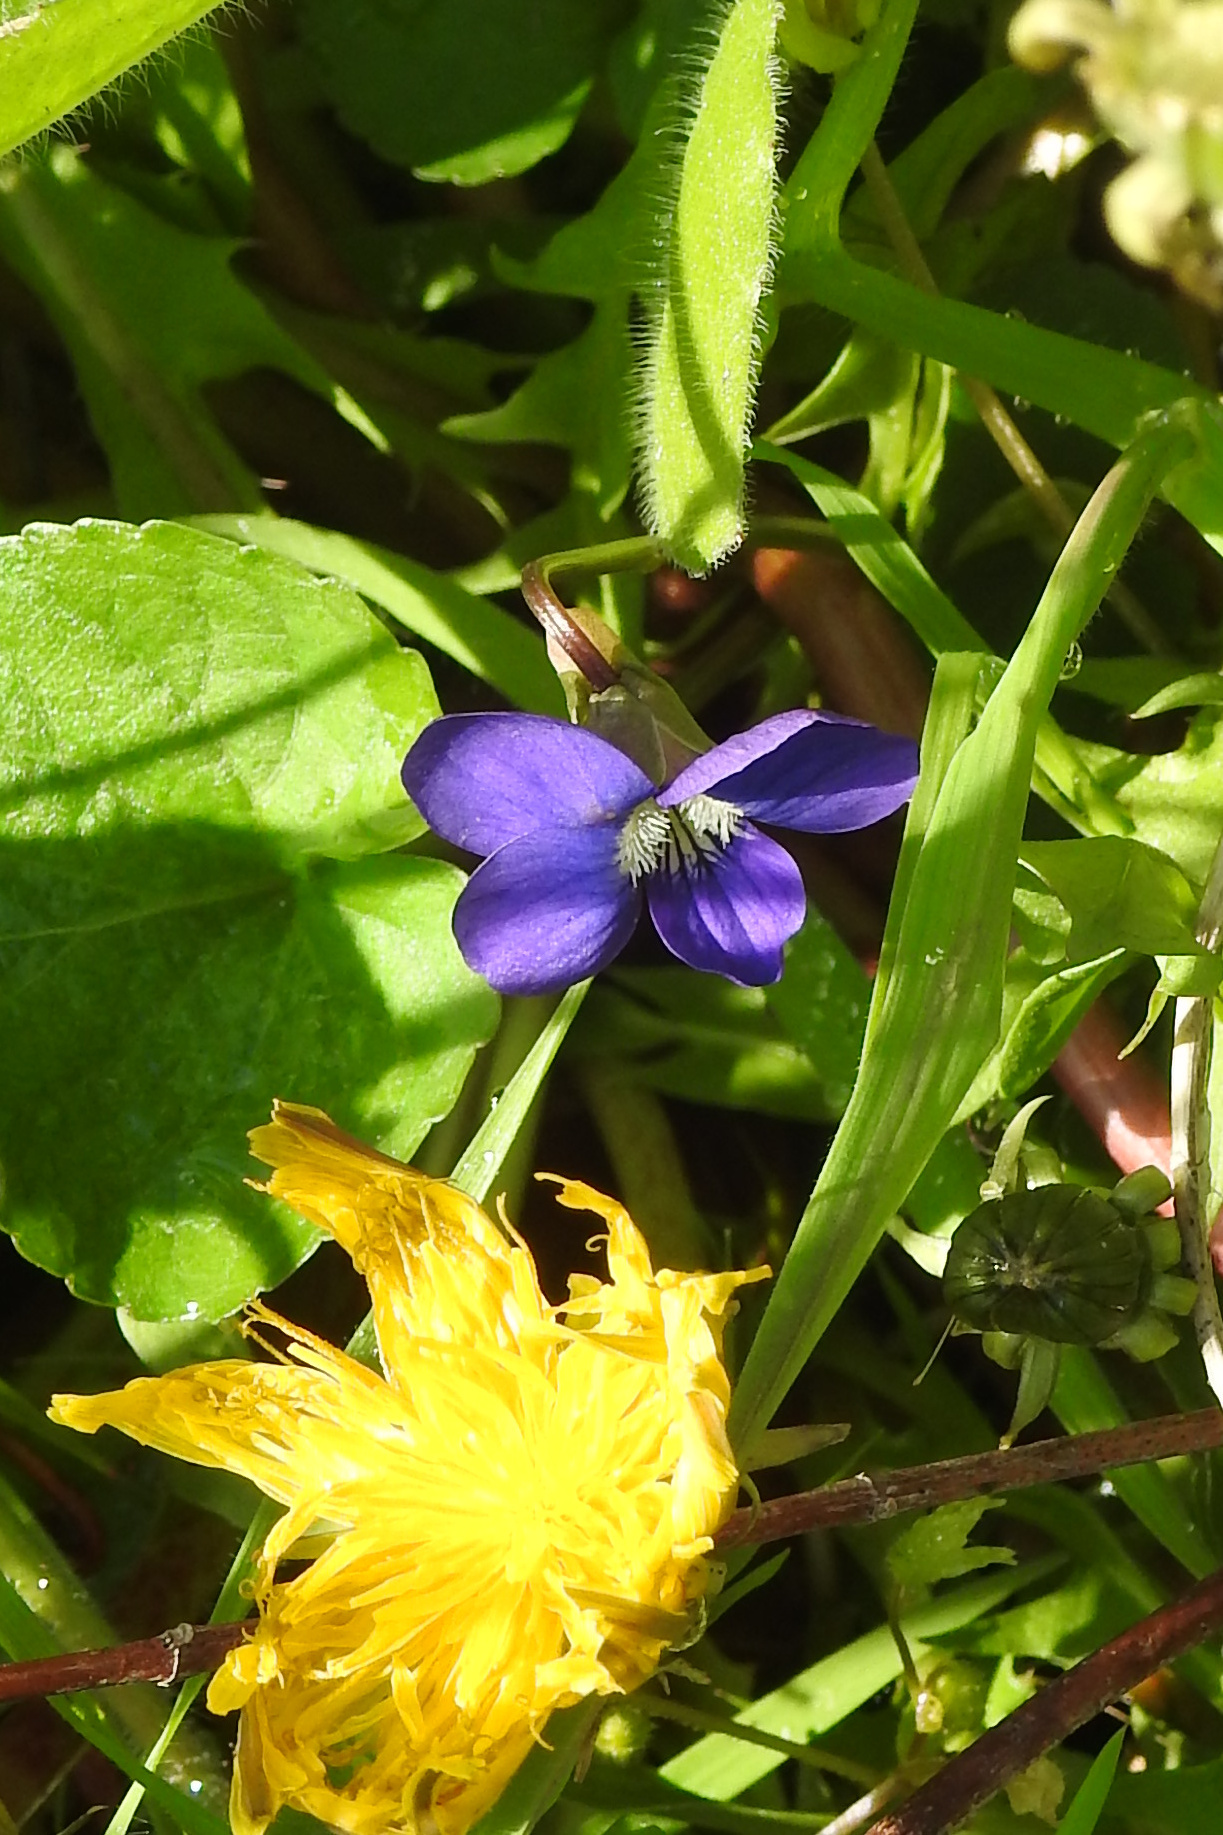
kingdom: Plantae
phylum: Tracheophyta
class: Magnoliopsida
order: Malpighiales
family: Violaceae
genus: Viola
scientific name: Viola sororia
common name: Dooryard violet
